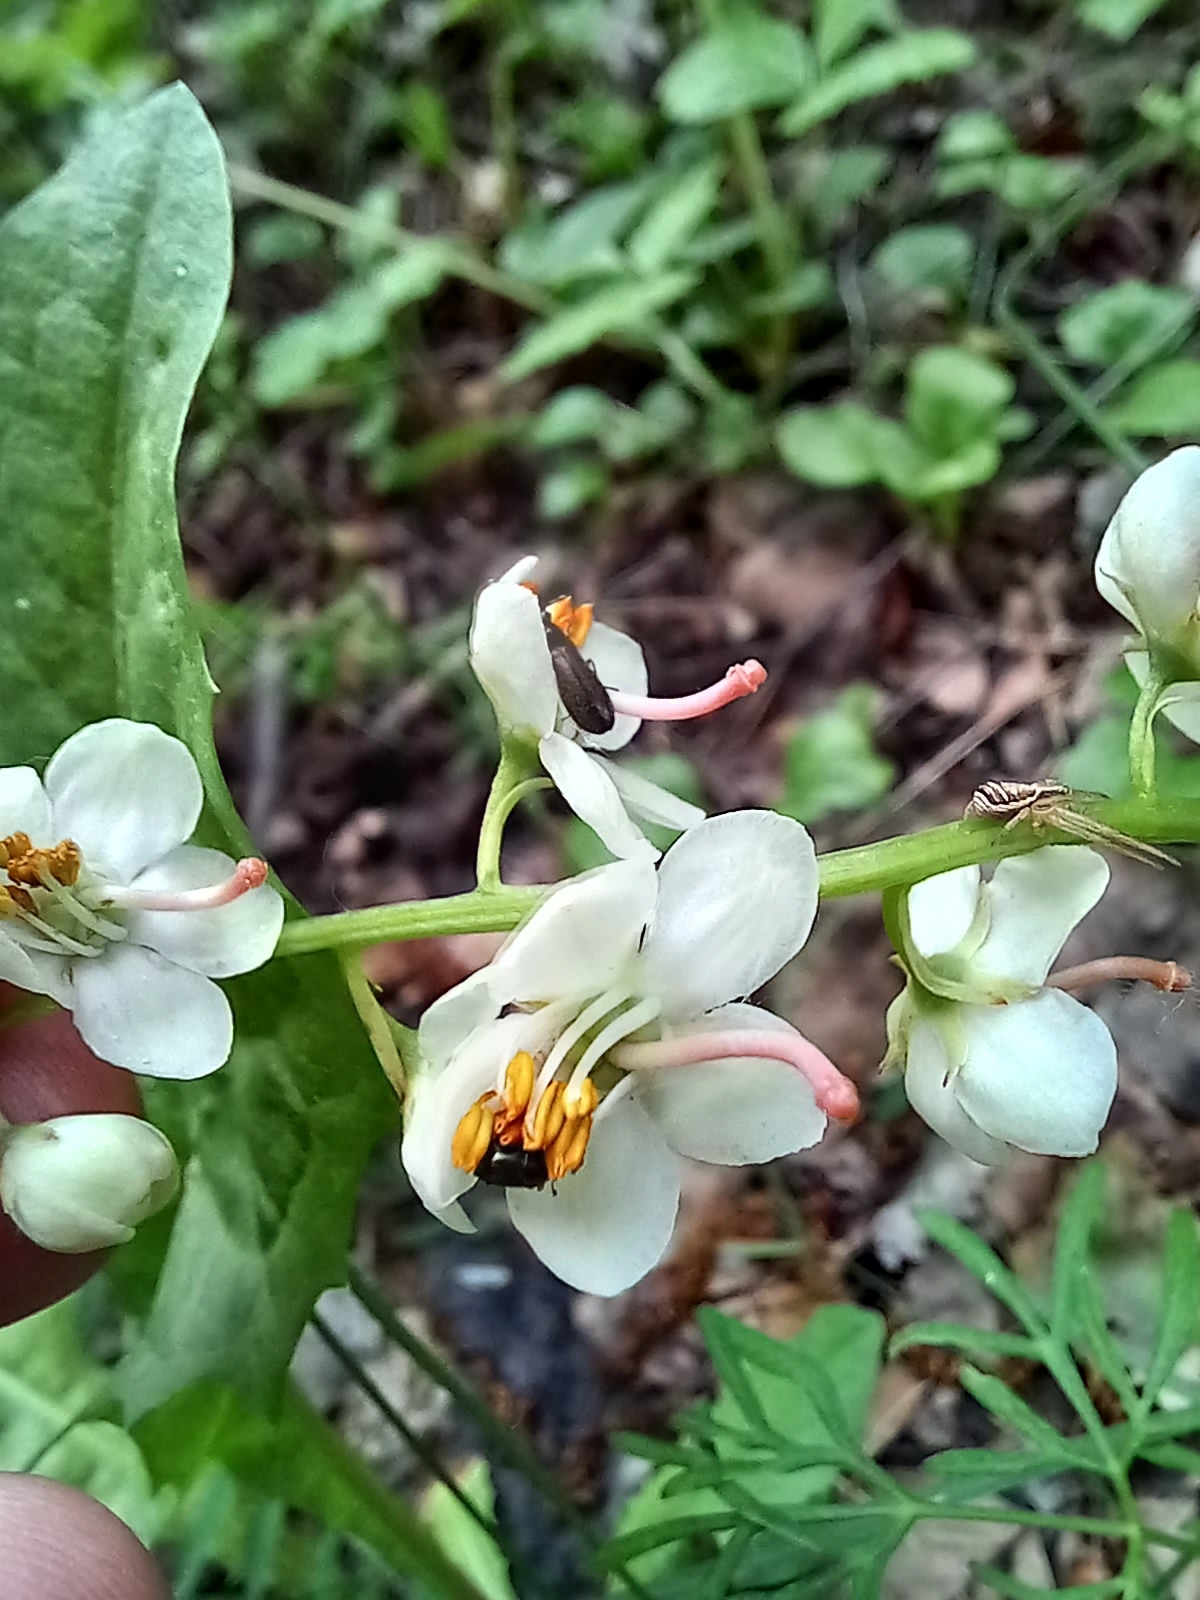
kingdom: Plantae
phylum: Tracheophyta
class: Magnoliopsida
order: Ericales
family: Ericaceae
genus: Pyrola
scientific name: Pyrola rotundifolia
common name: Round-leaved wintergreen
